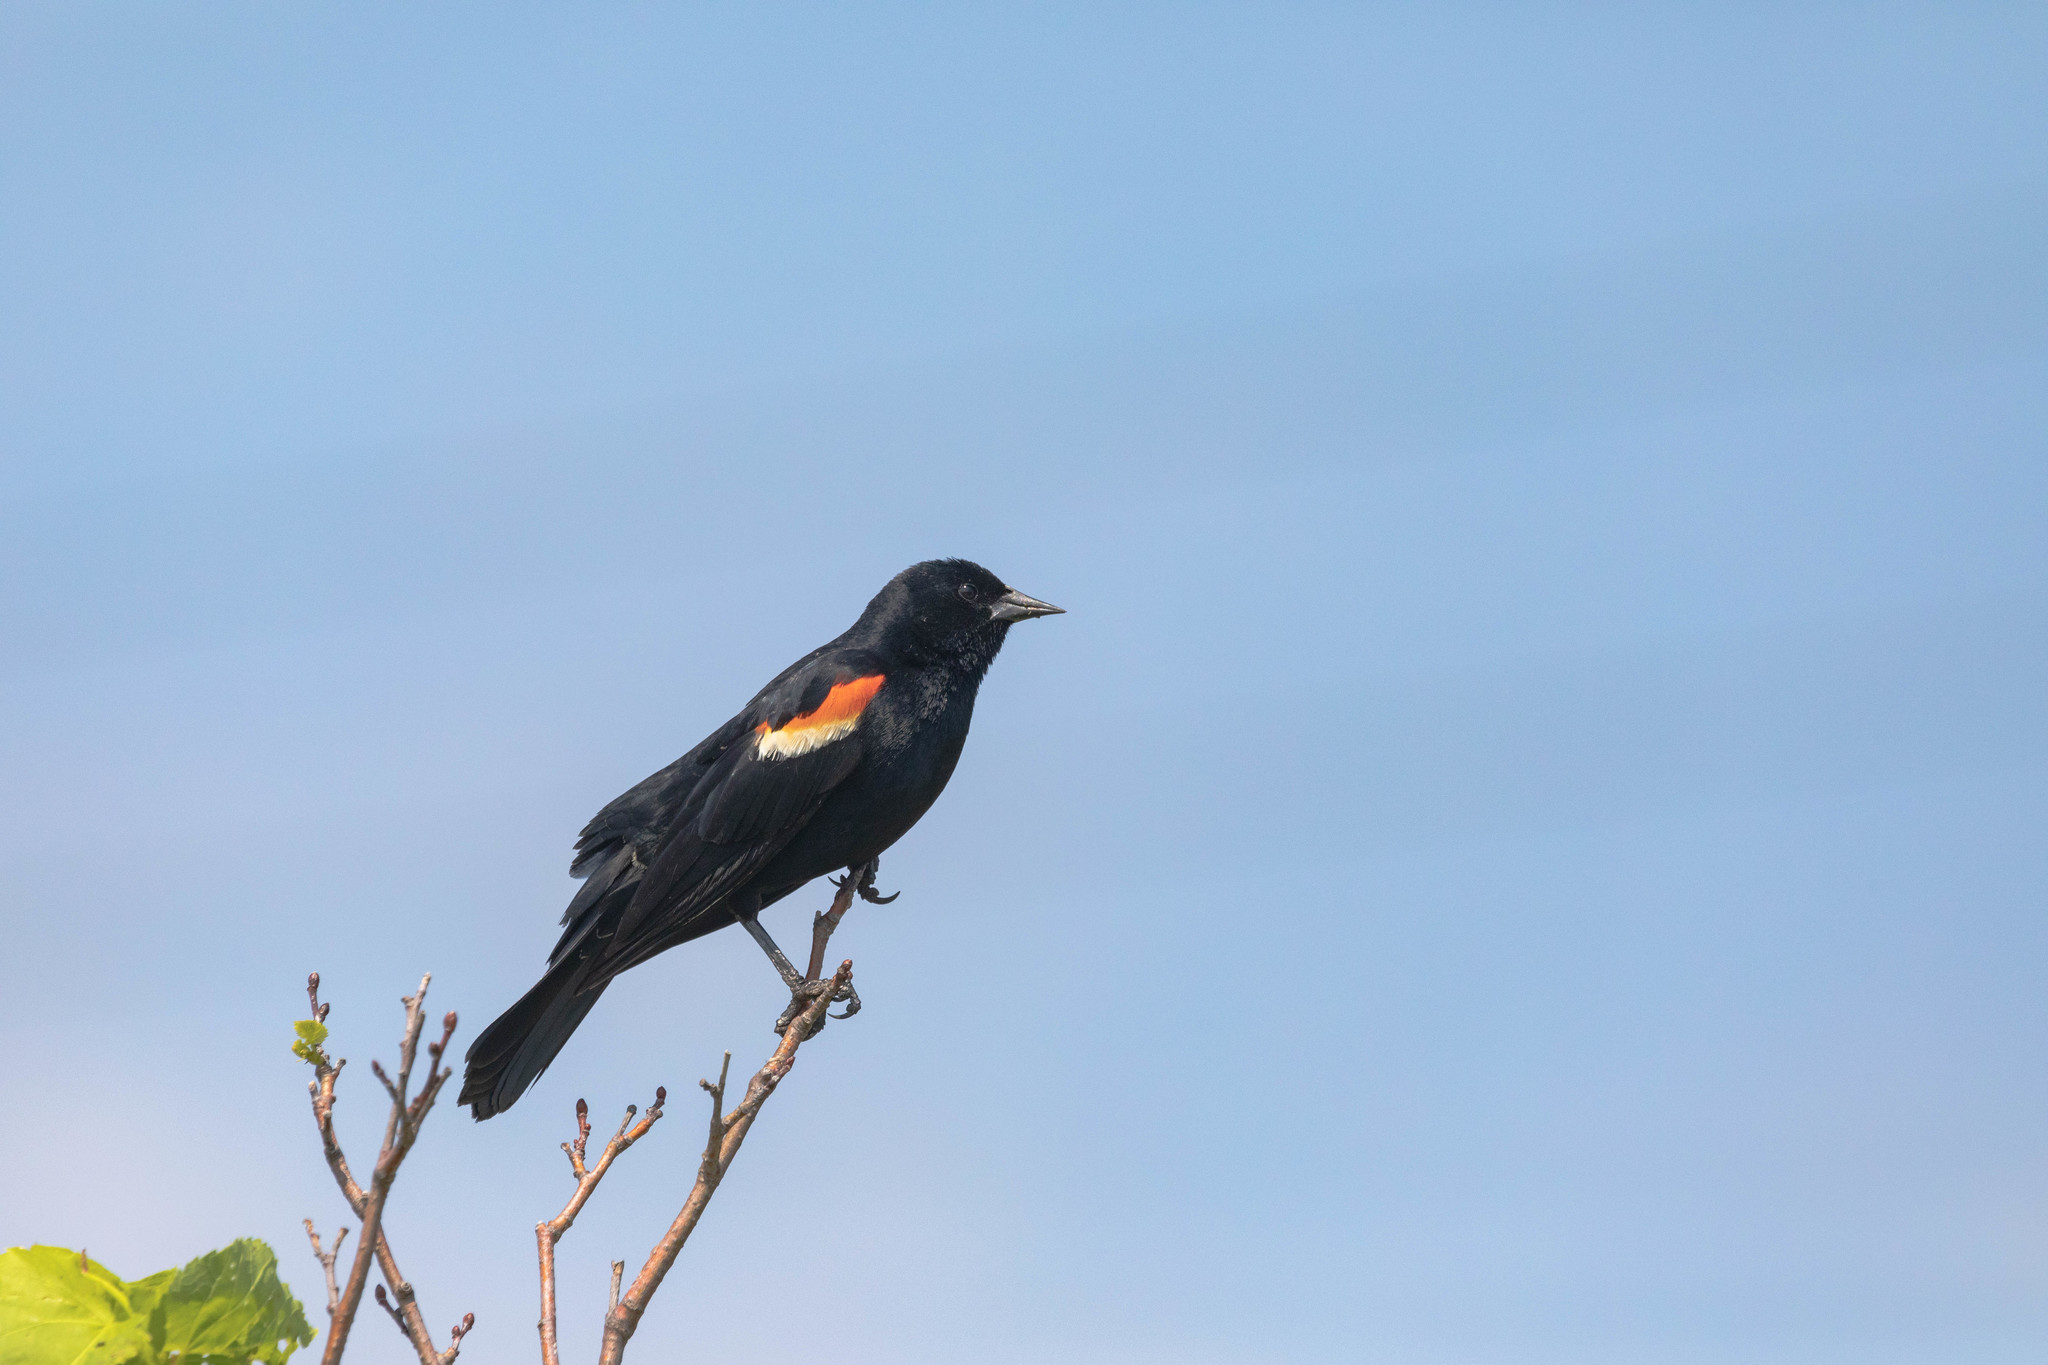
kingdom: Animalia
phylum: Chordata
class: Aves
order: Passeriformes
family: Icteridae
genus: Agelaius
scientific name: Agelaius phoeniceus
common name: Red-winged blackbird
